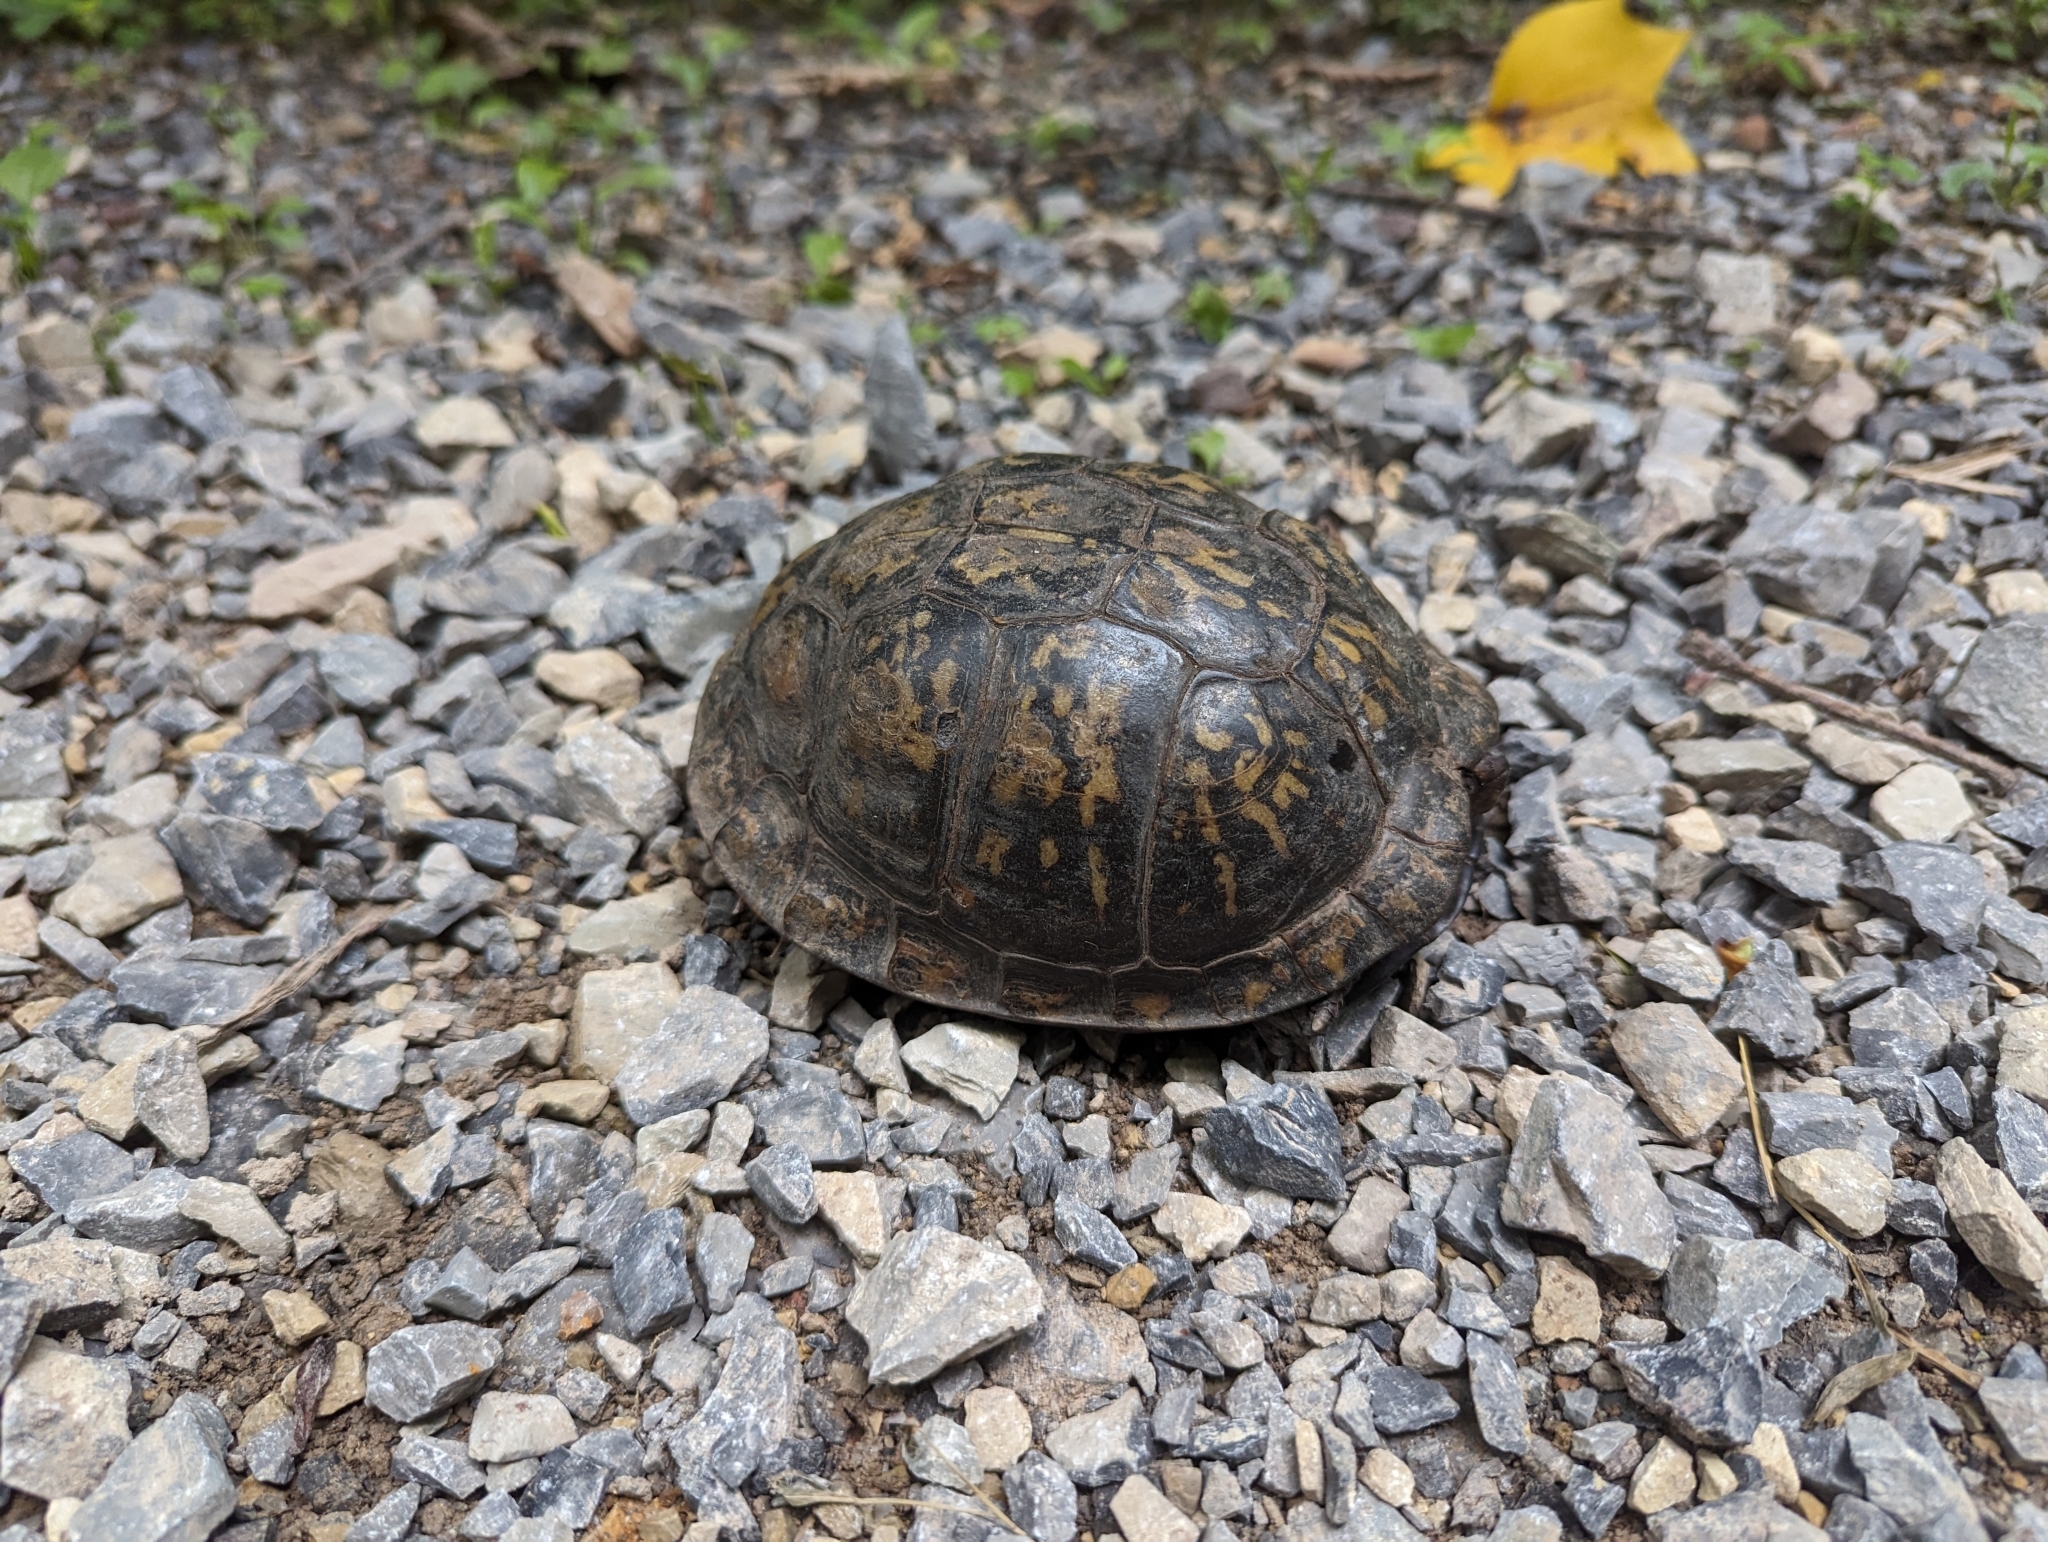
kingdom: Animalia
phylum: Chordata
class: Testudines
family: Emydidae
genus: Terrapene
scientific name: Terrapene carolina
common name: Common box turtle
